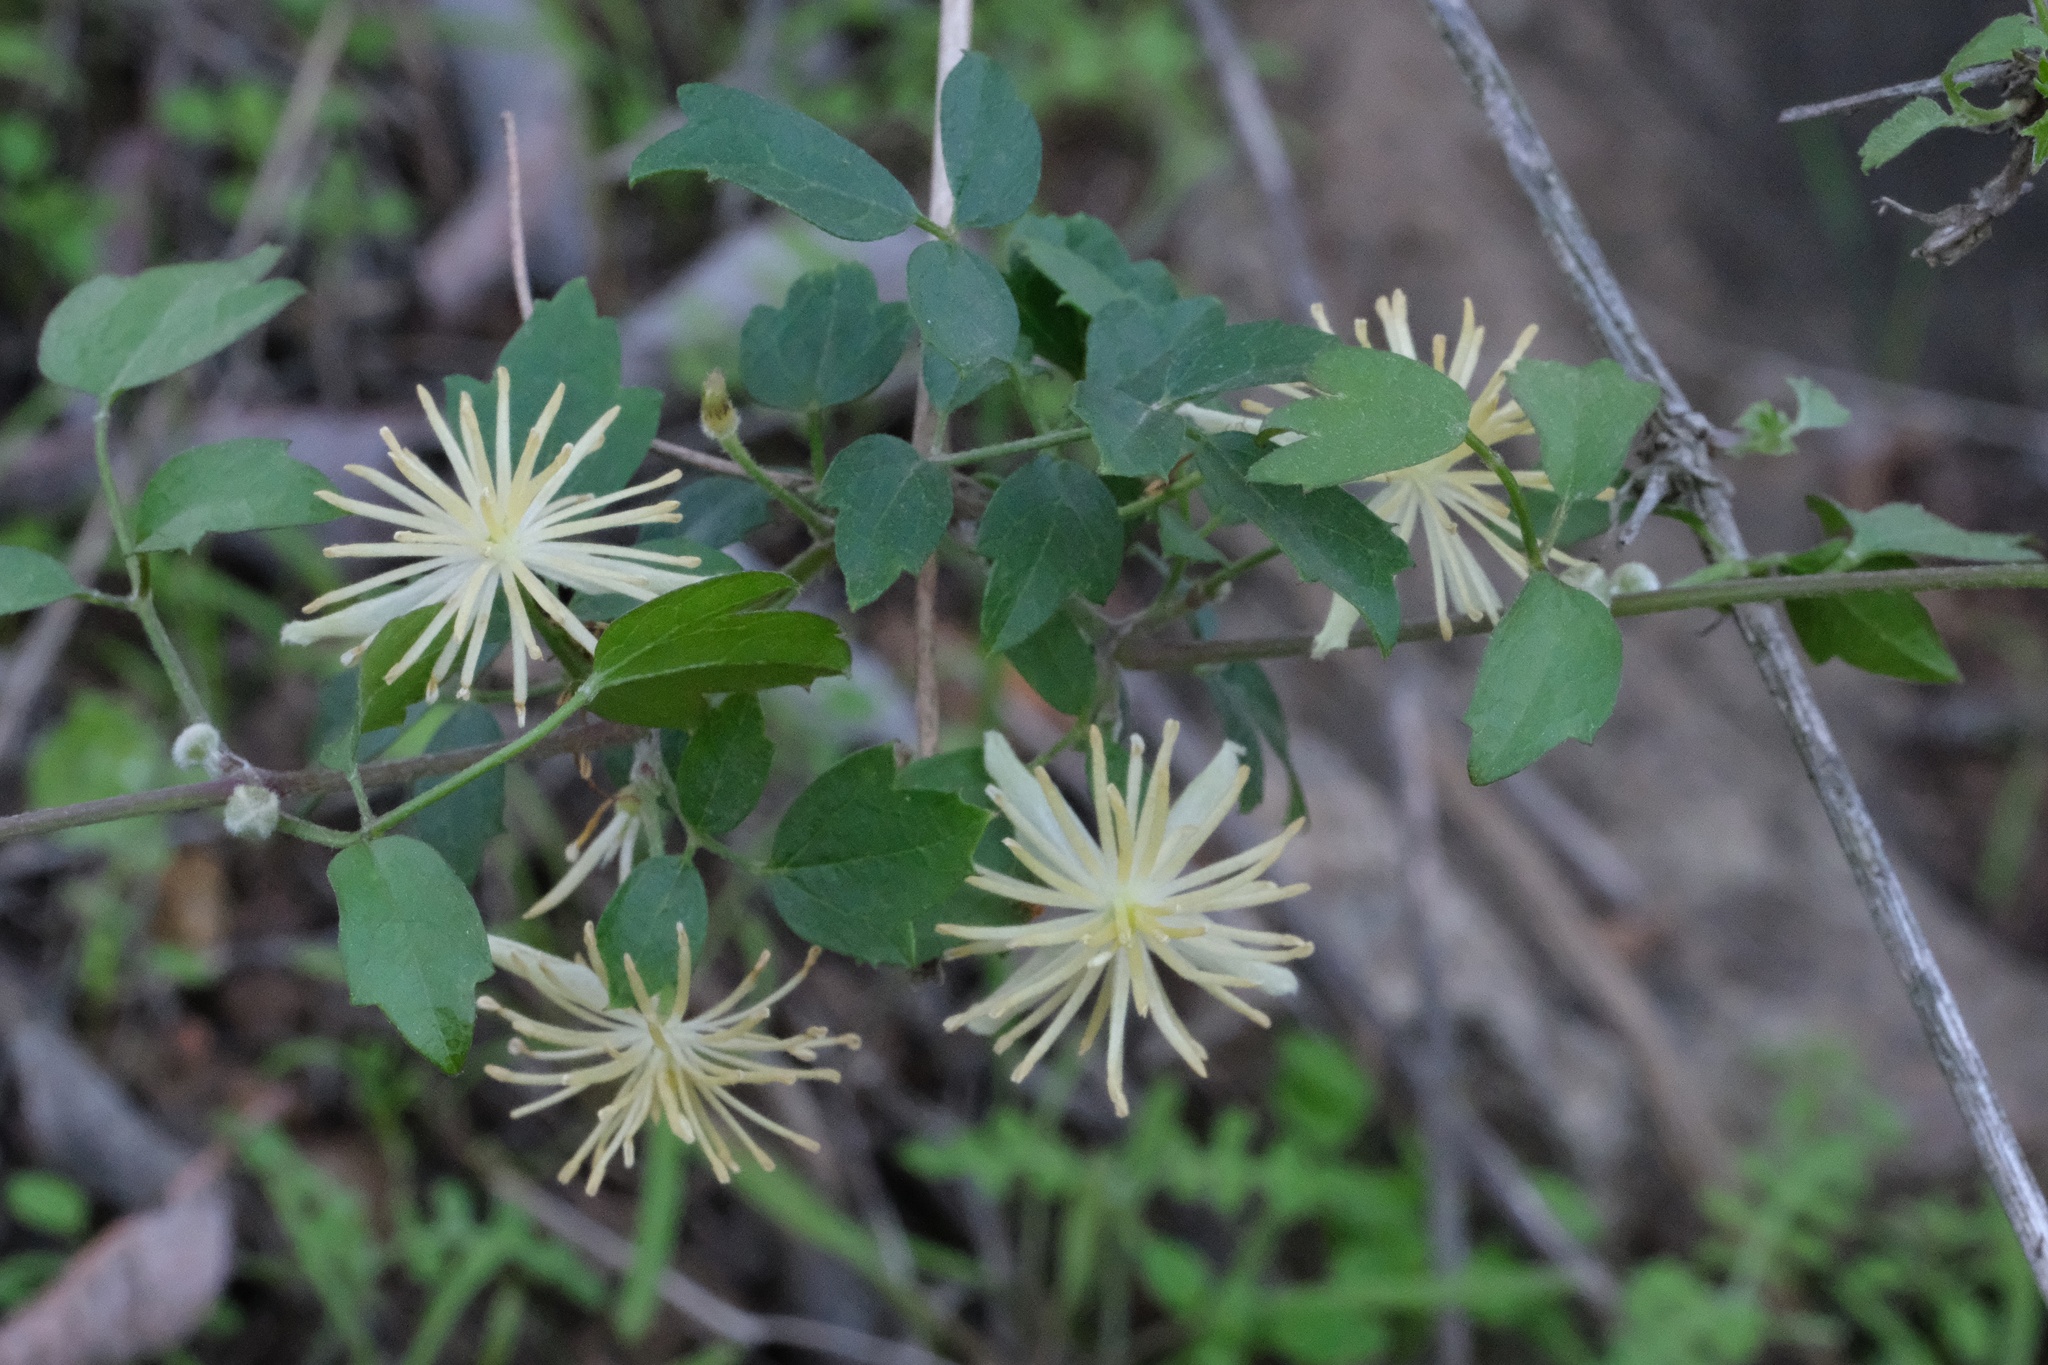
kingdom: Plantae
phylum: Tracheophyta
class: Magnoliopsida
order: Ranunculales
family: Ranunculaceae
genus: Clematis
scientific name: Clematis pauciflora
